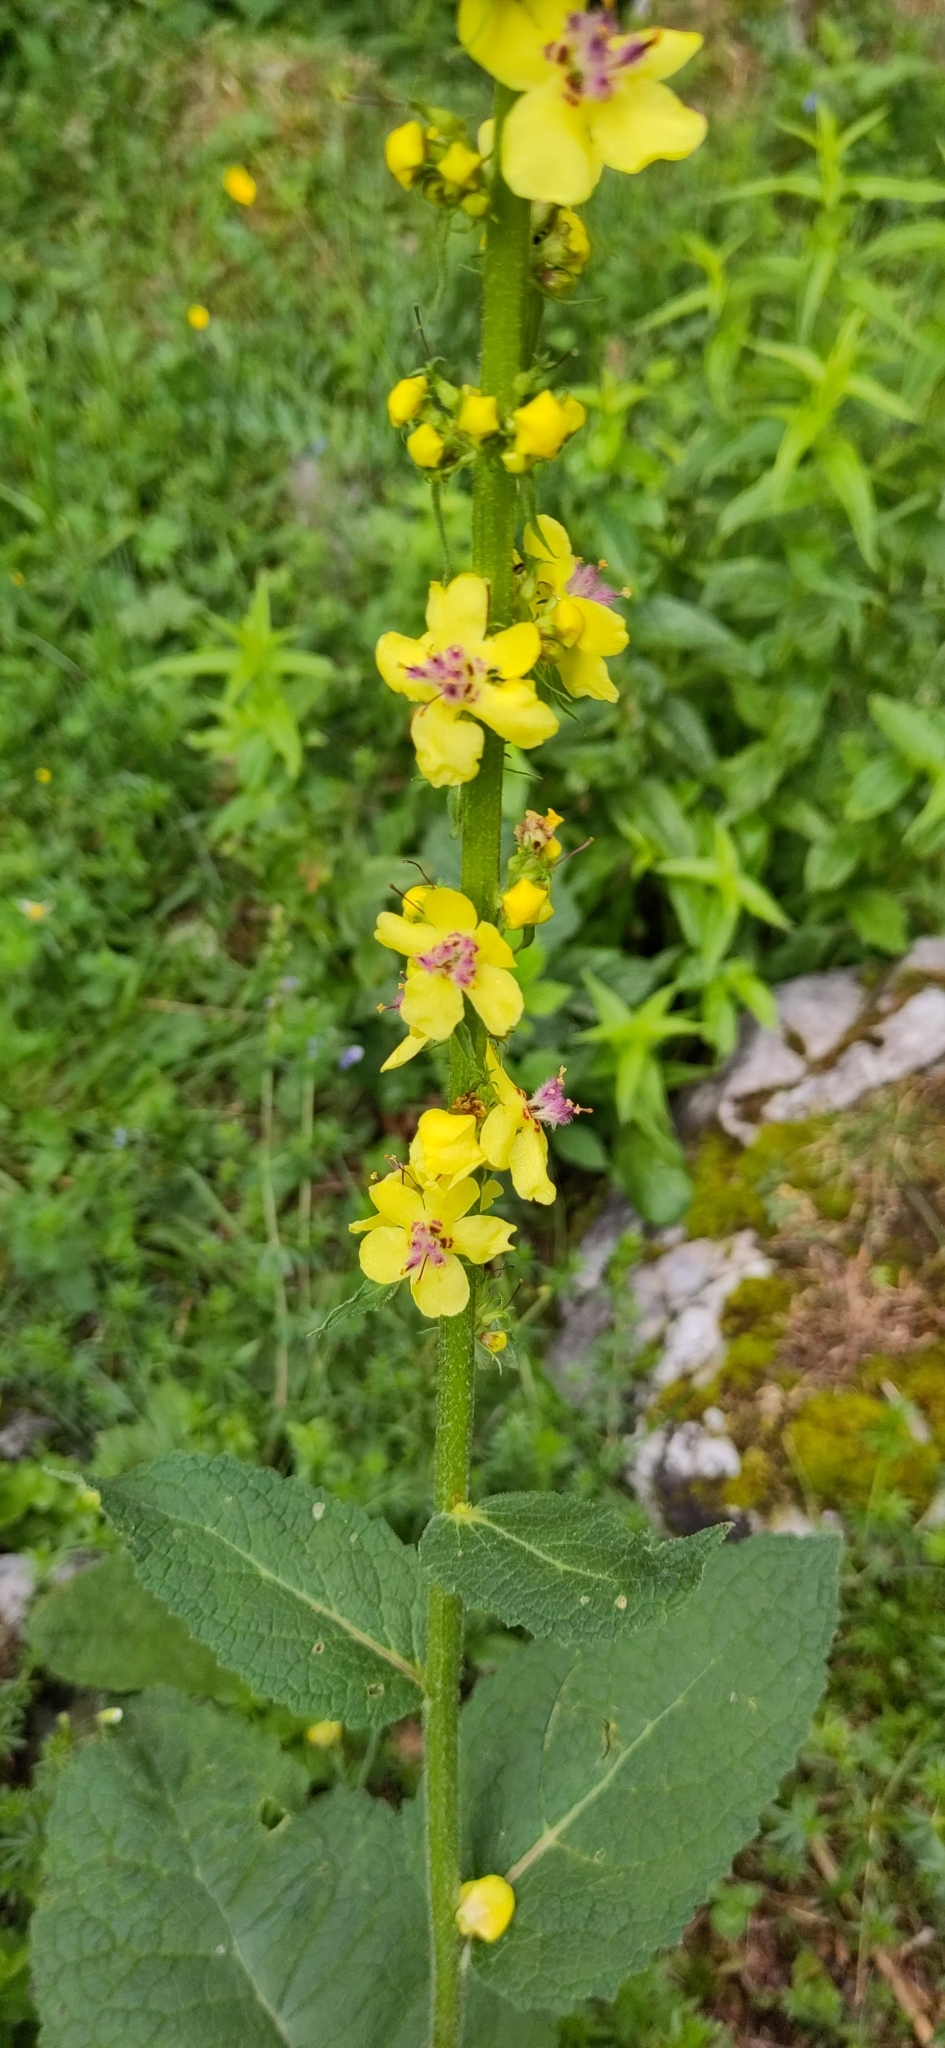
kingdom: Plantae
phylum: Tracheophyta
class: Magnoliopsida
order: Lamiales
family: Scrophulariaceae
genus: Verbascum
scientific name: Verbascum nigrum
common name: Dark mullein
